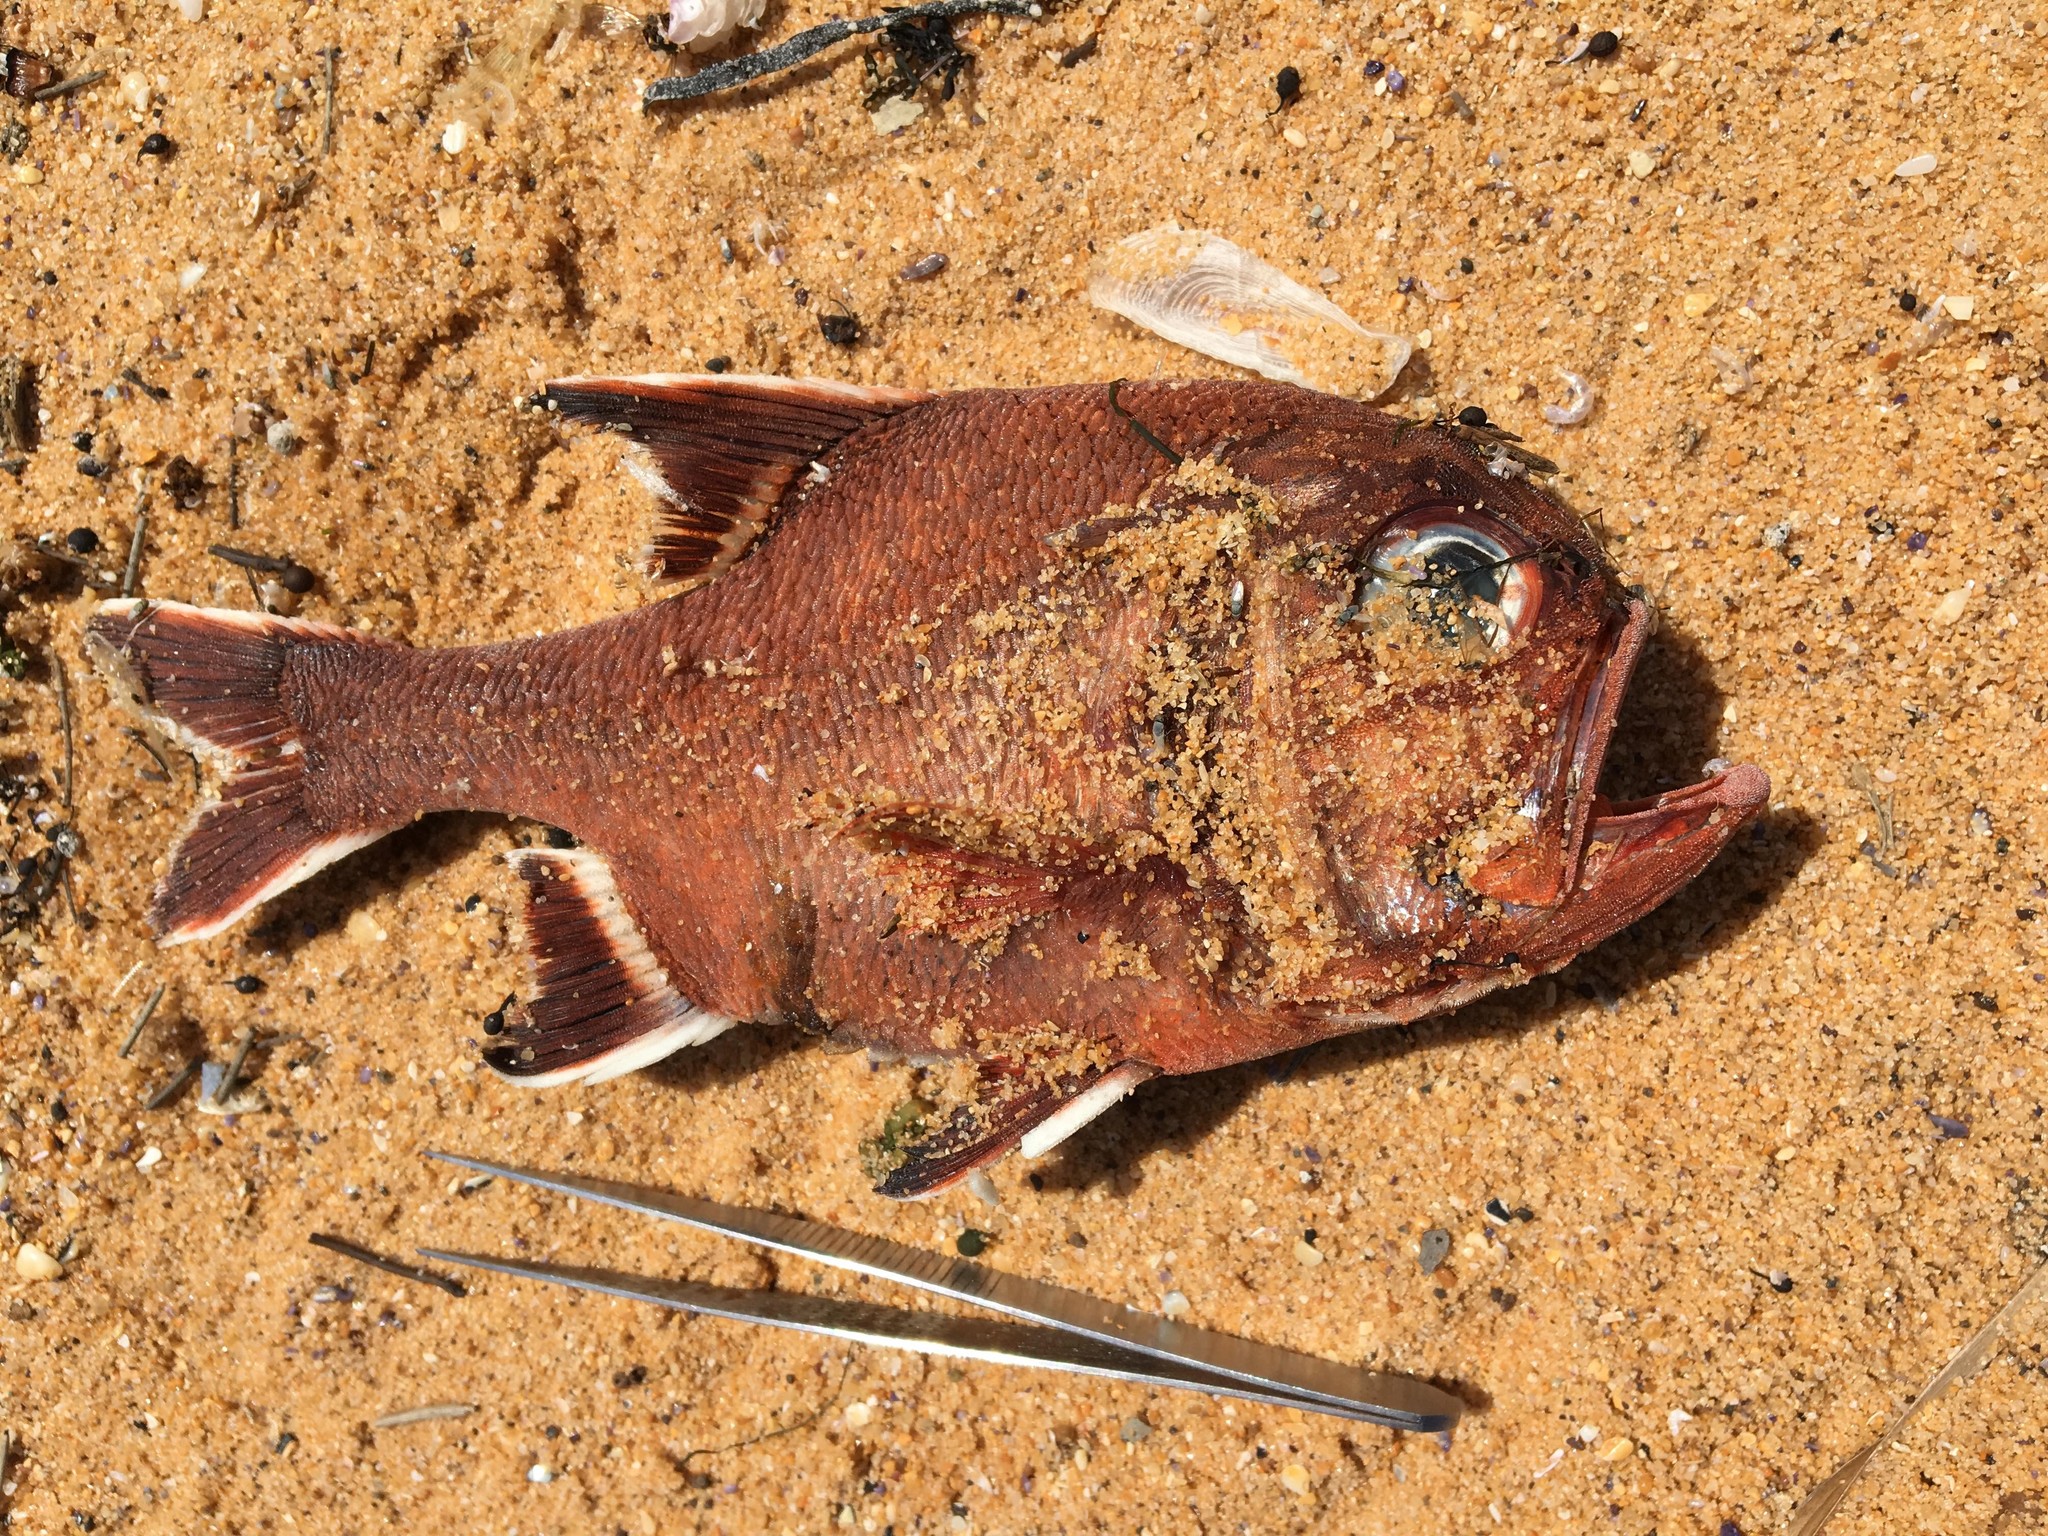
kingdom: Animalia
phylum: Chordata
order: Beryciformes
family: Trachichthyidae
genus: Trachichthys
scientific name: Trachichthys australis
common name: Southern roughy
